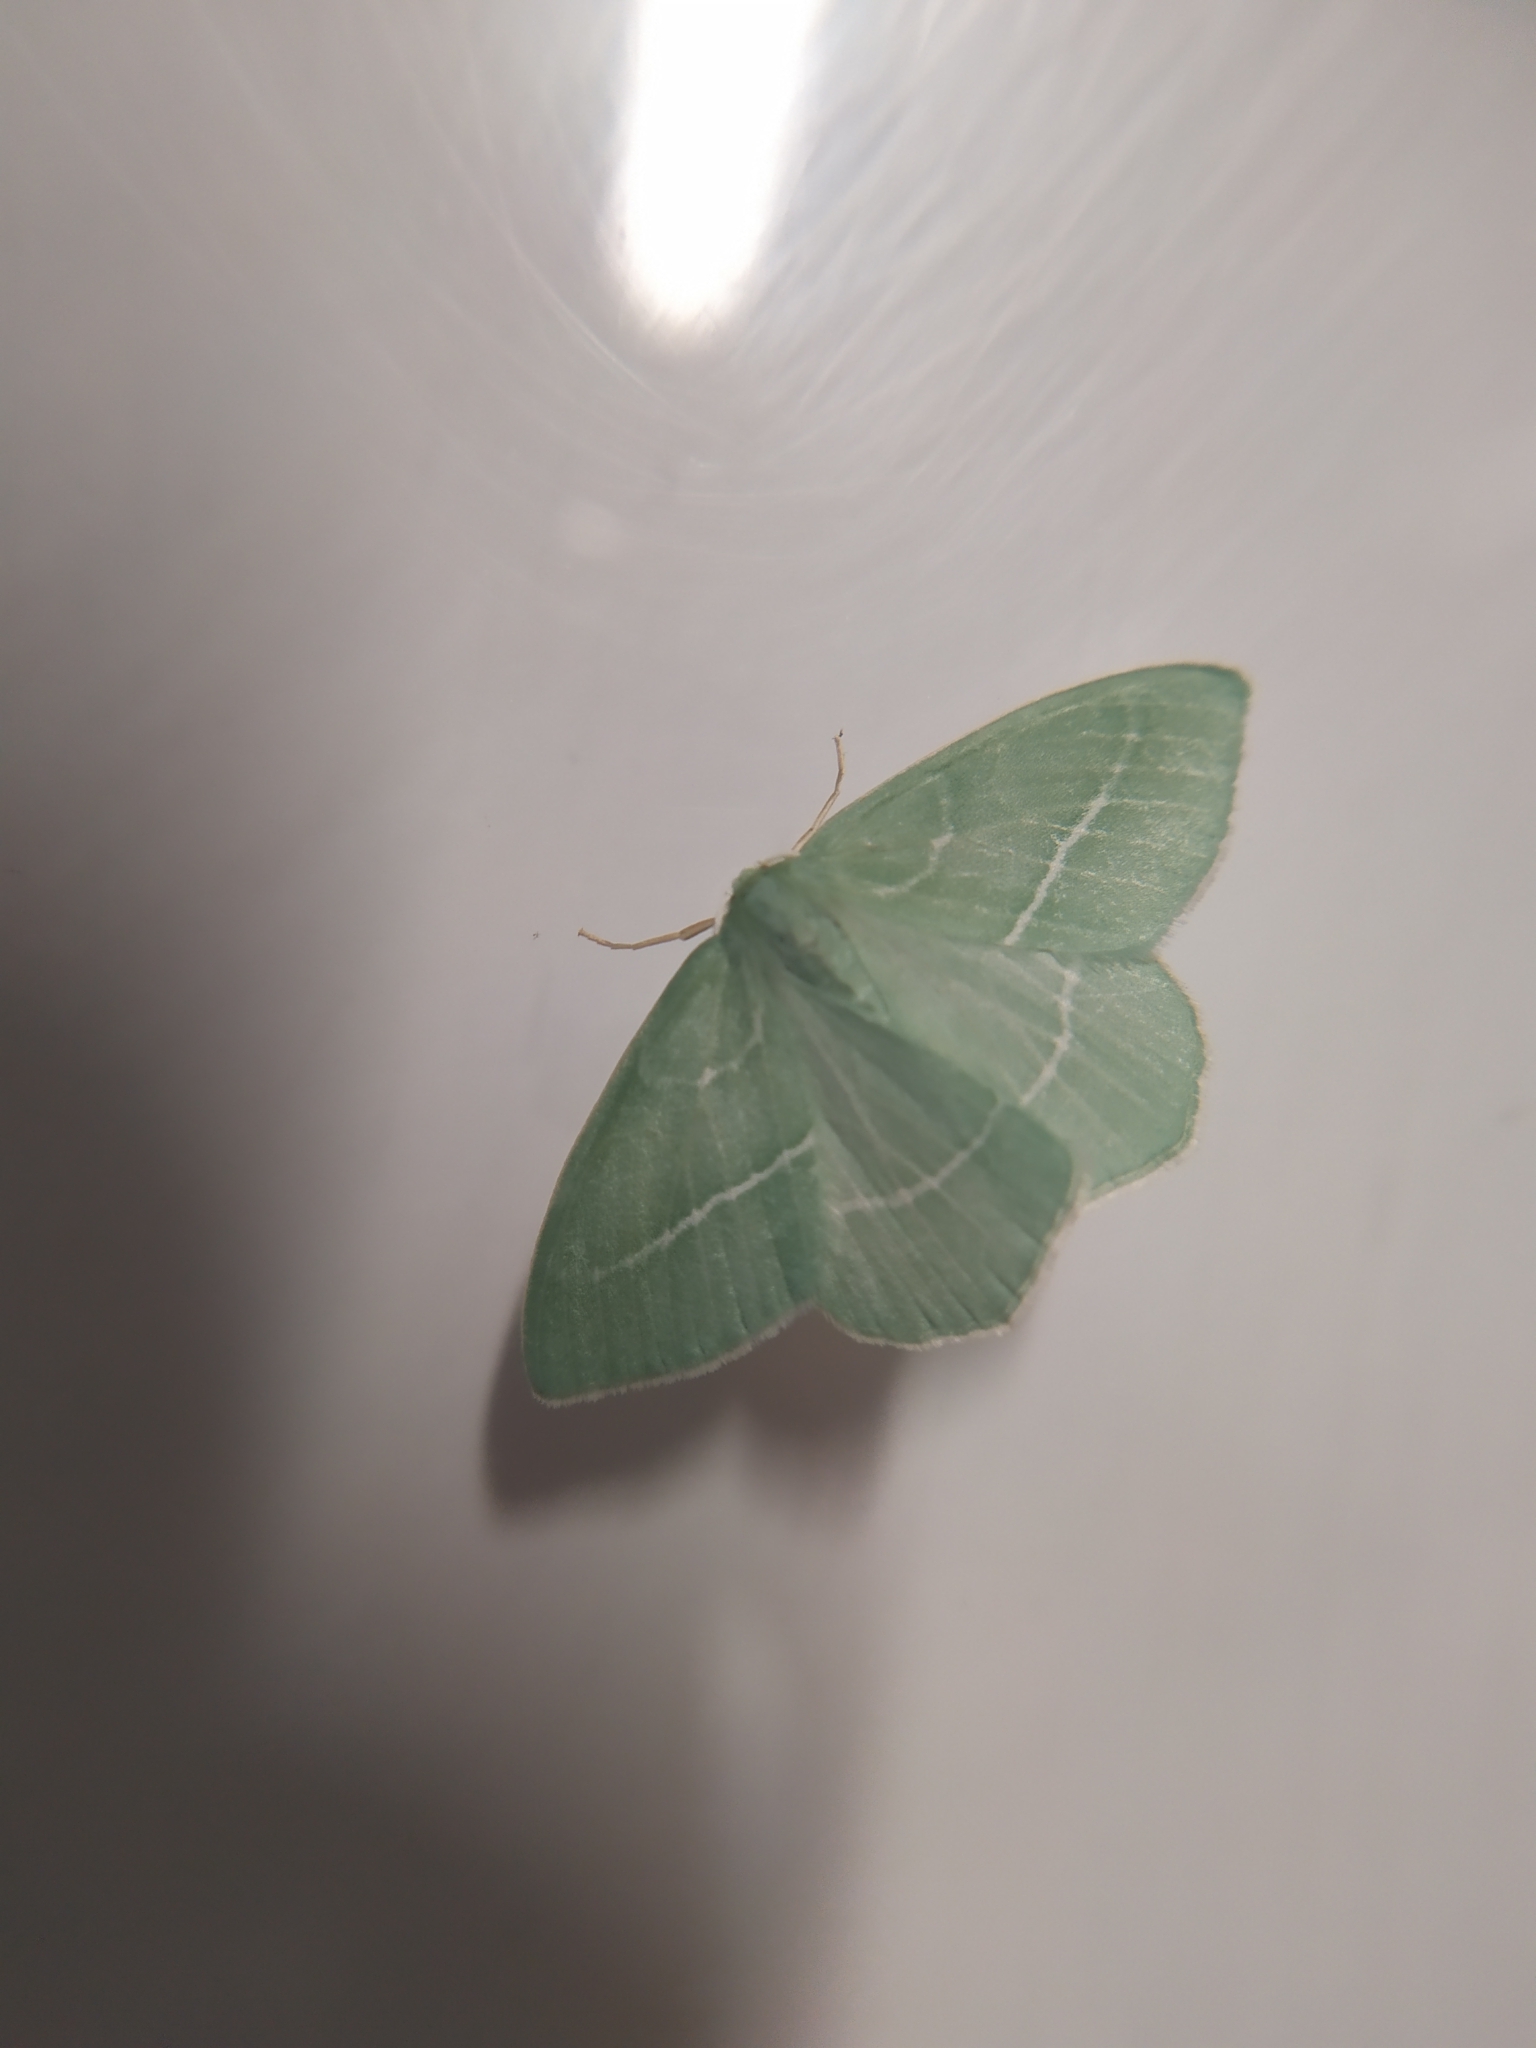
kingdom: Animalia
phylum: Arthropoda
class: Insecta
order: Lepidoptera
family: Geometridae
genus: Hemistola
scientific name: Hemistola chrysoprasaria
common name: Small emerald
